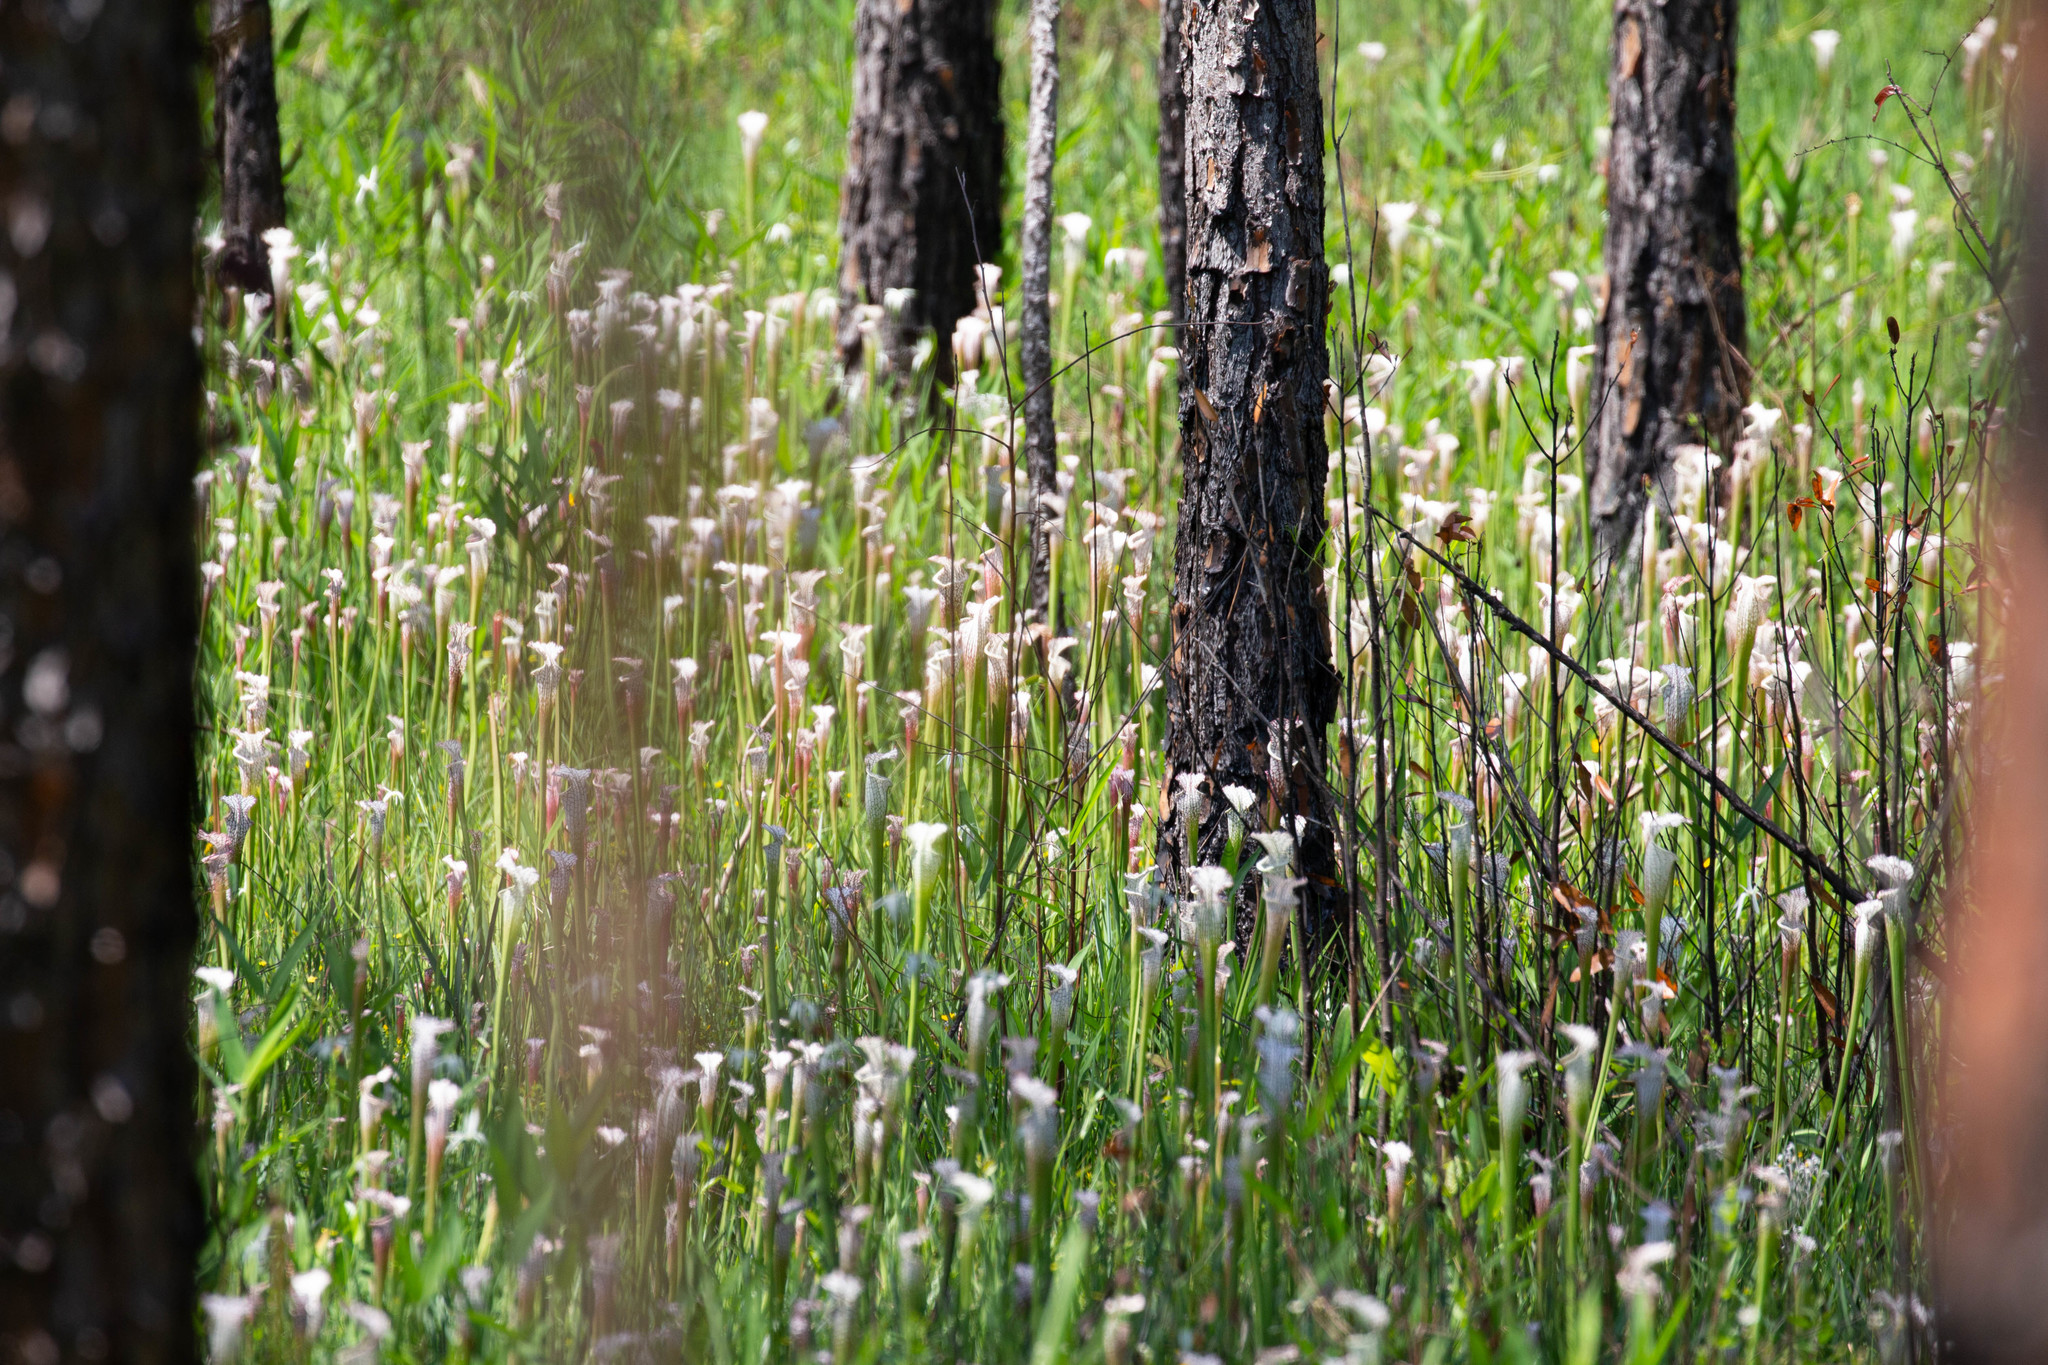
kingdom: Plantae
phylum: Tracheophyta
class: Magnoliopsida
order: Ericales
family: Sarraceniaceae
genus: Sarracenia
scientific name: Sarracenia leucophylla
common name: Purple trumpetleaf
